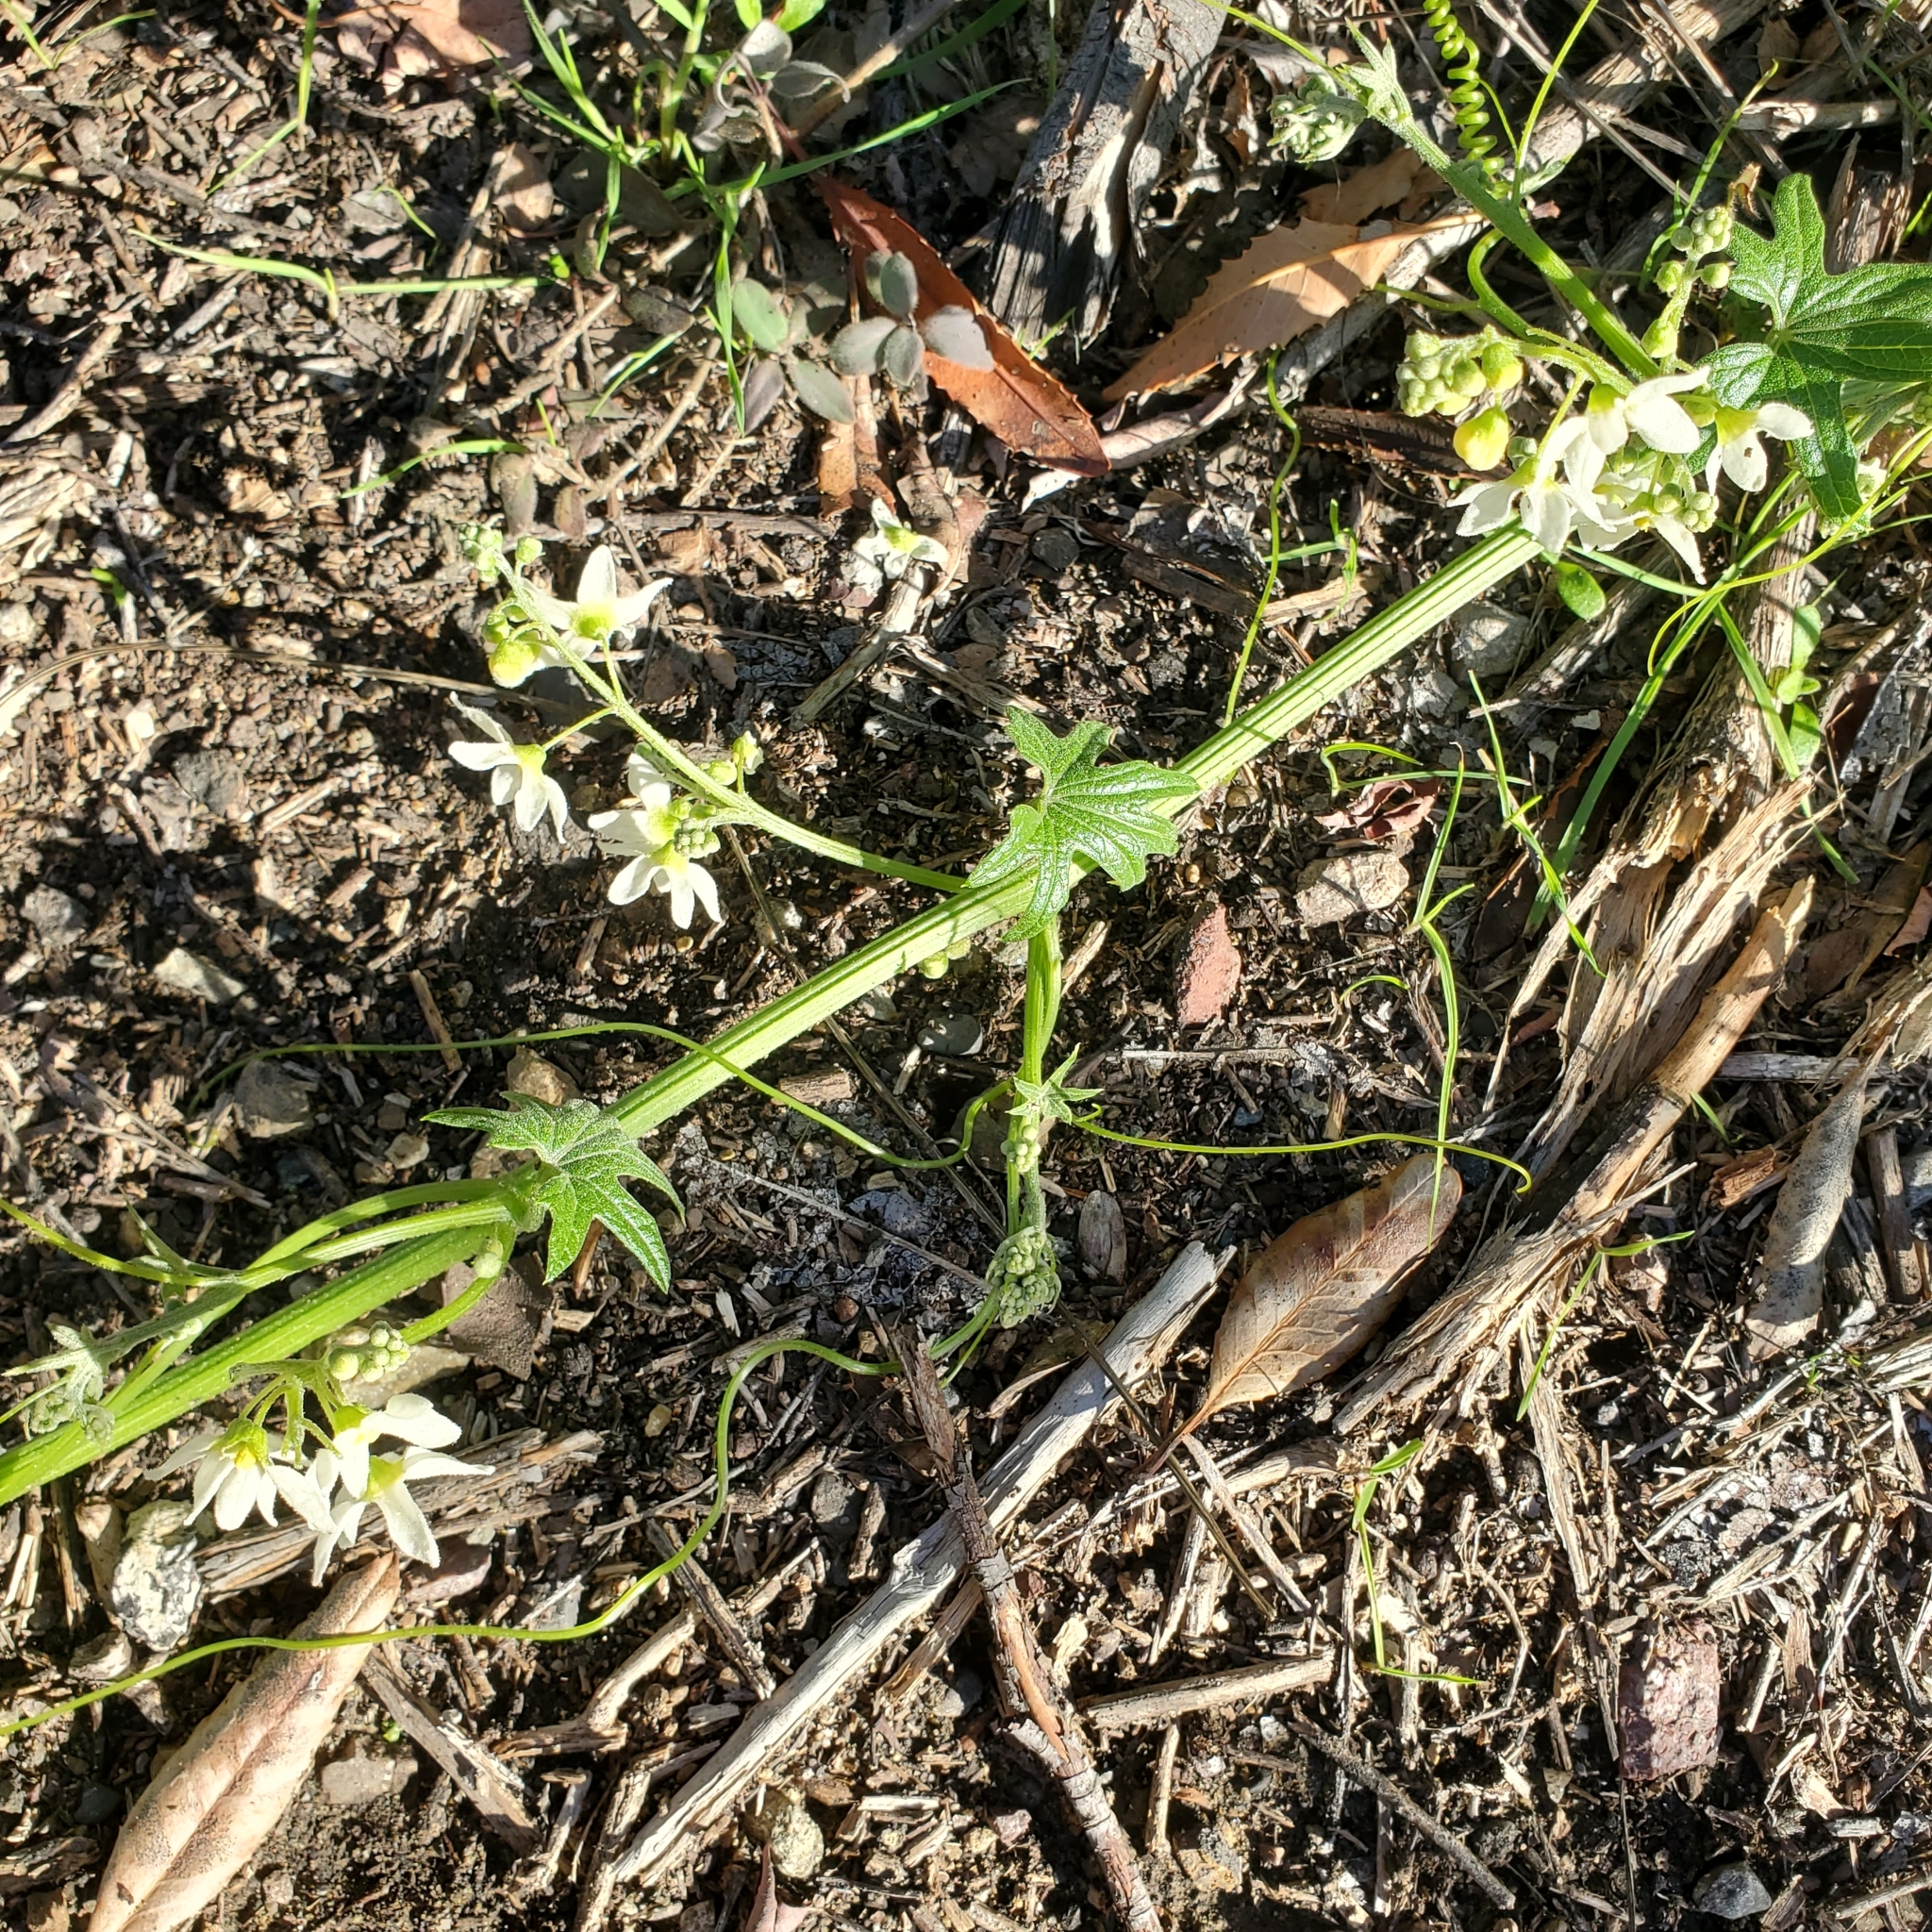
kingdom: Plantae
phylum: Tracheophyta
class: Magnoliopsida
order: Cucurbitales
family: Cucurbitaceae
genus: Marah
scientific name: Marah macrocarpa
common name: Cucamonga manroot
